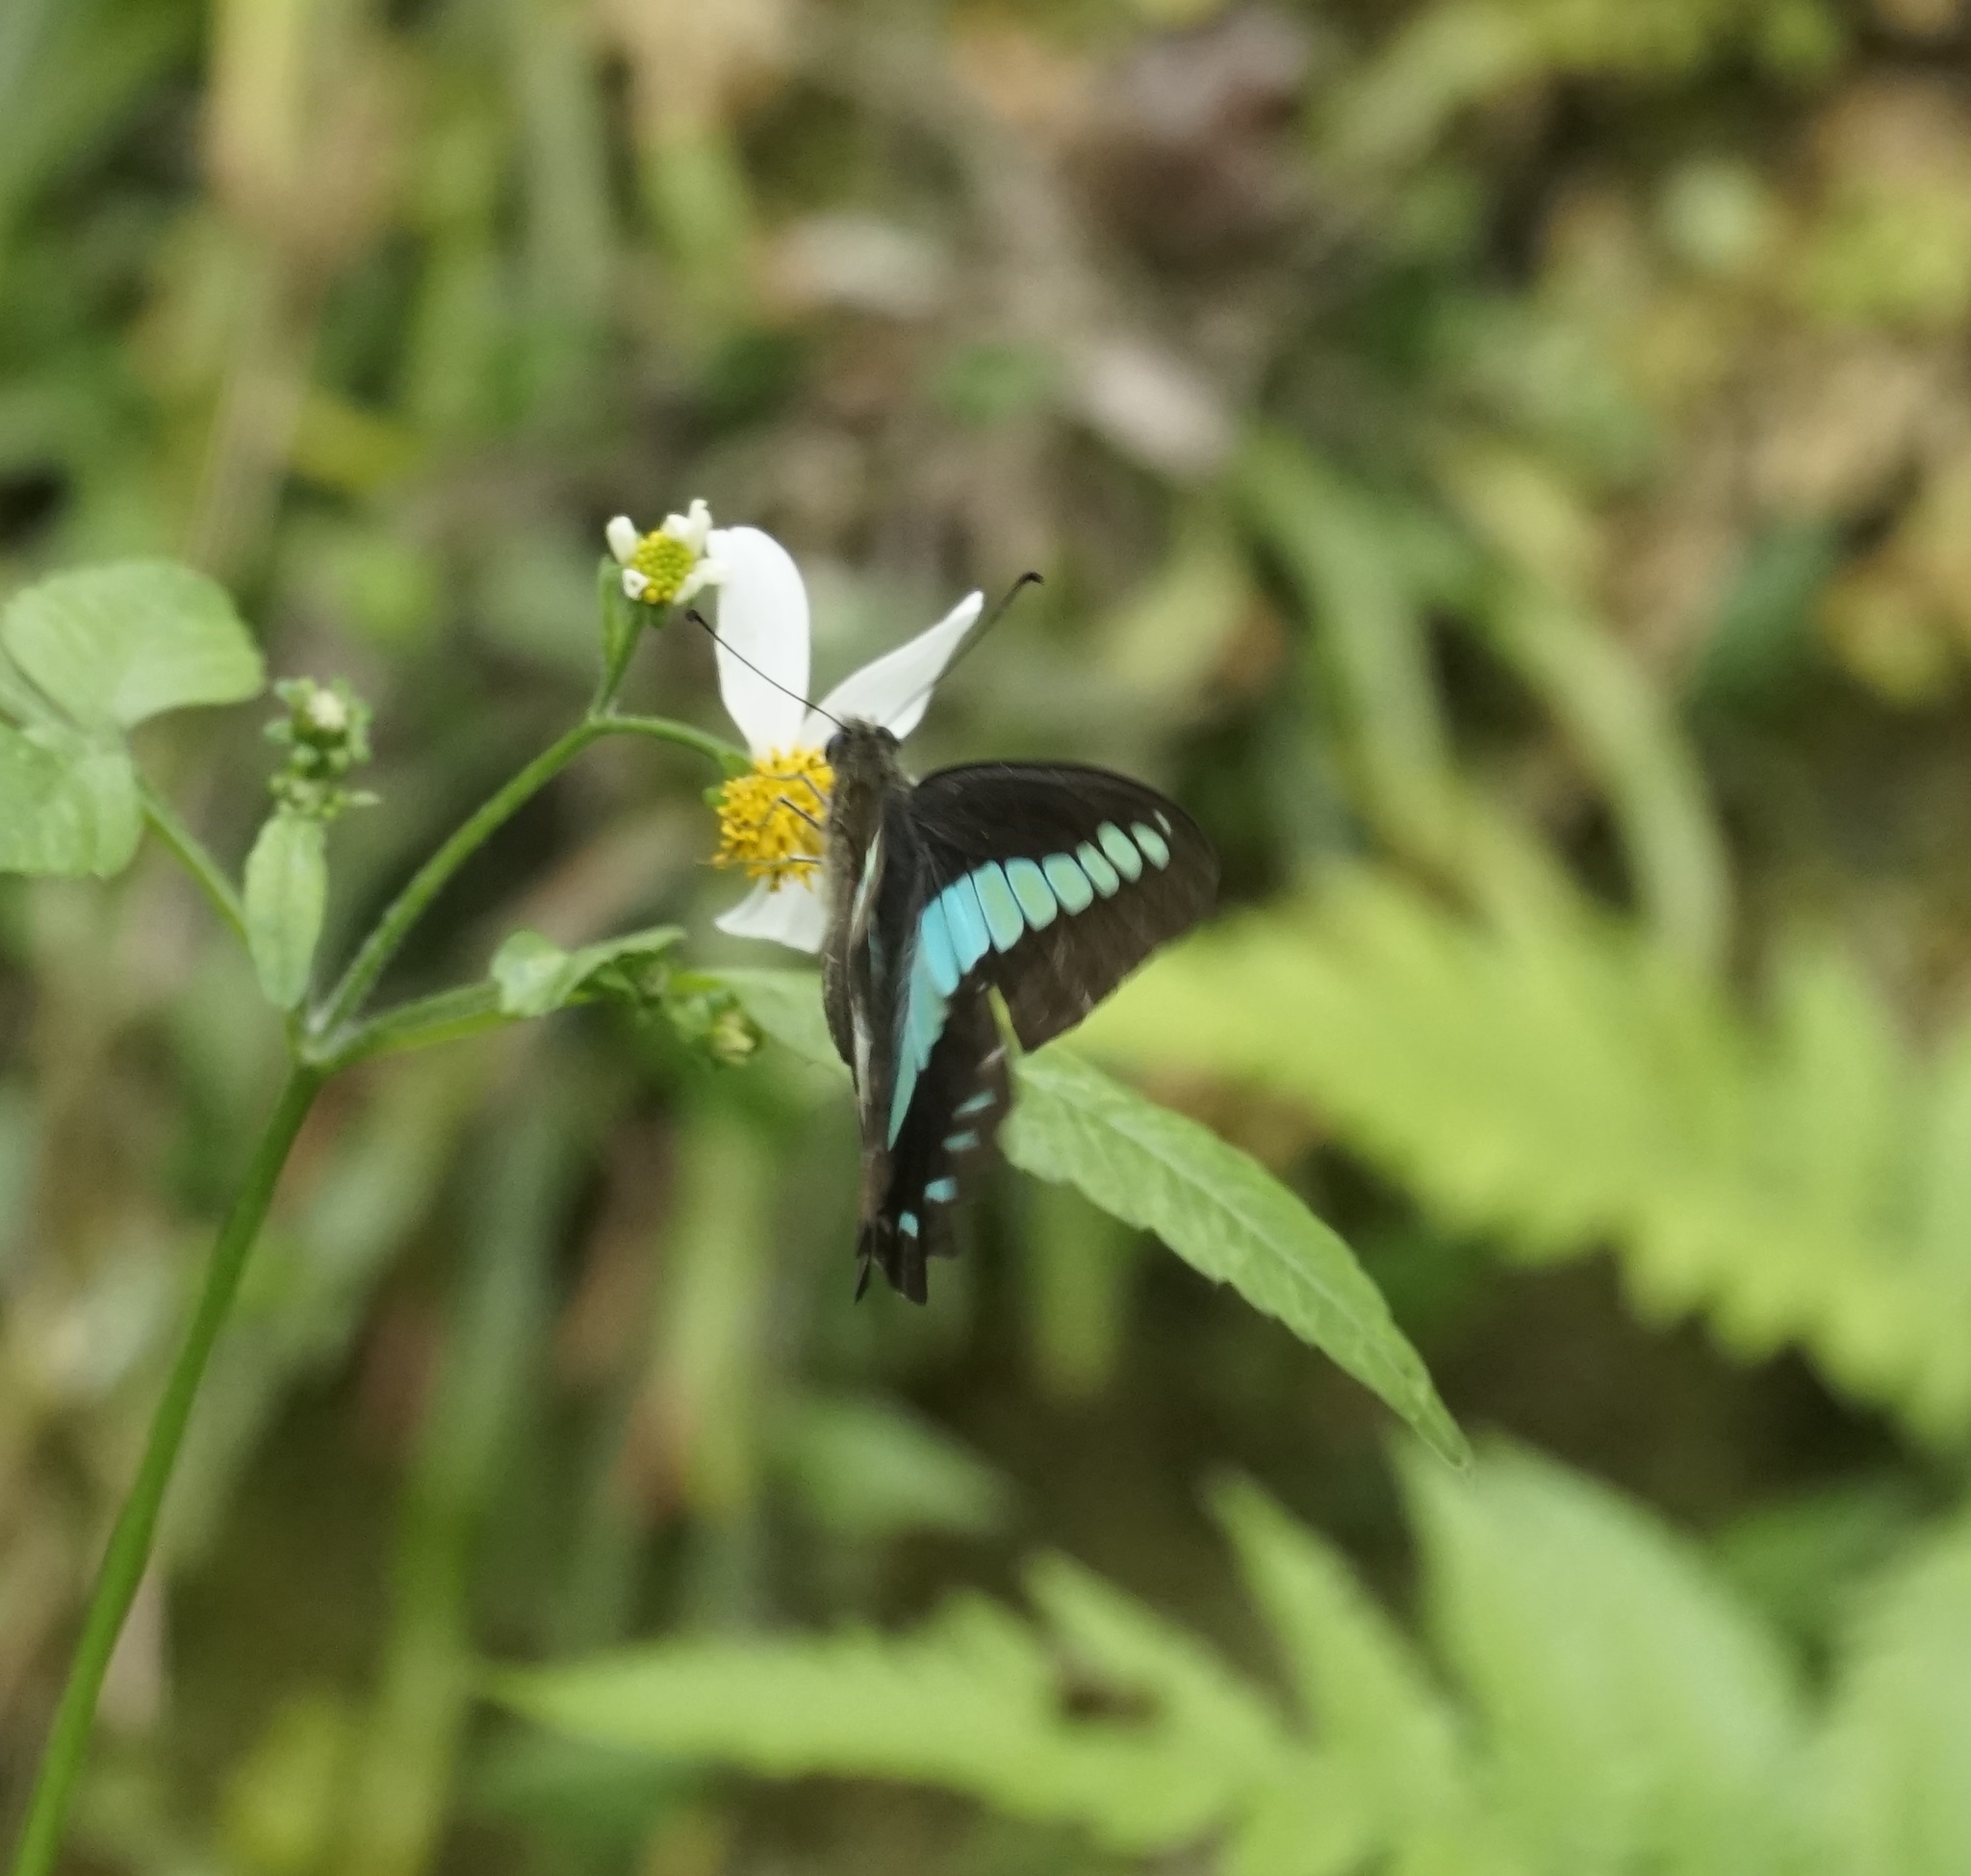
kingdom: Fungi
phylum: Ascomycota
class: Sordariomycetes
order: Microascales
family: Microascaceae
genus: Graphium
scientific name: Graphium sarpedon
